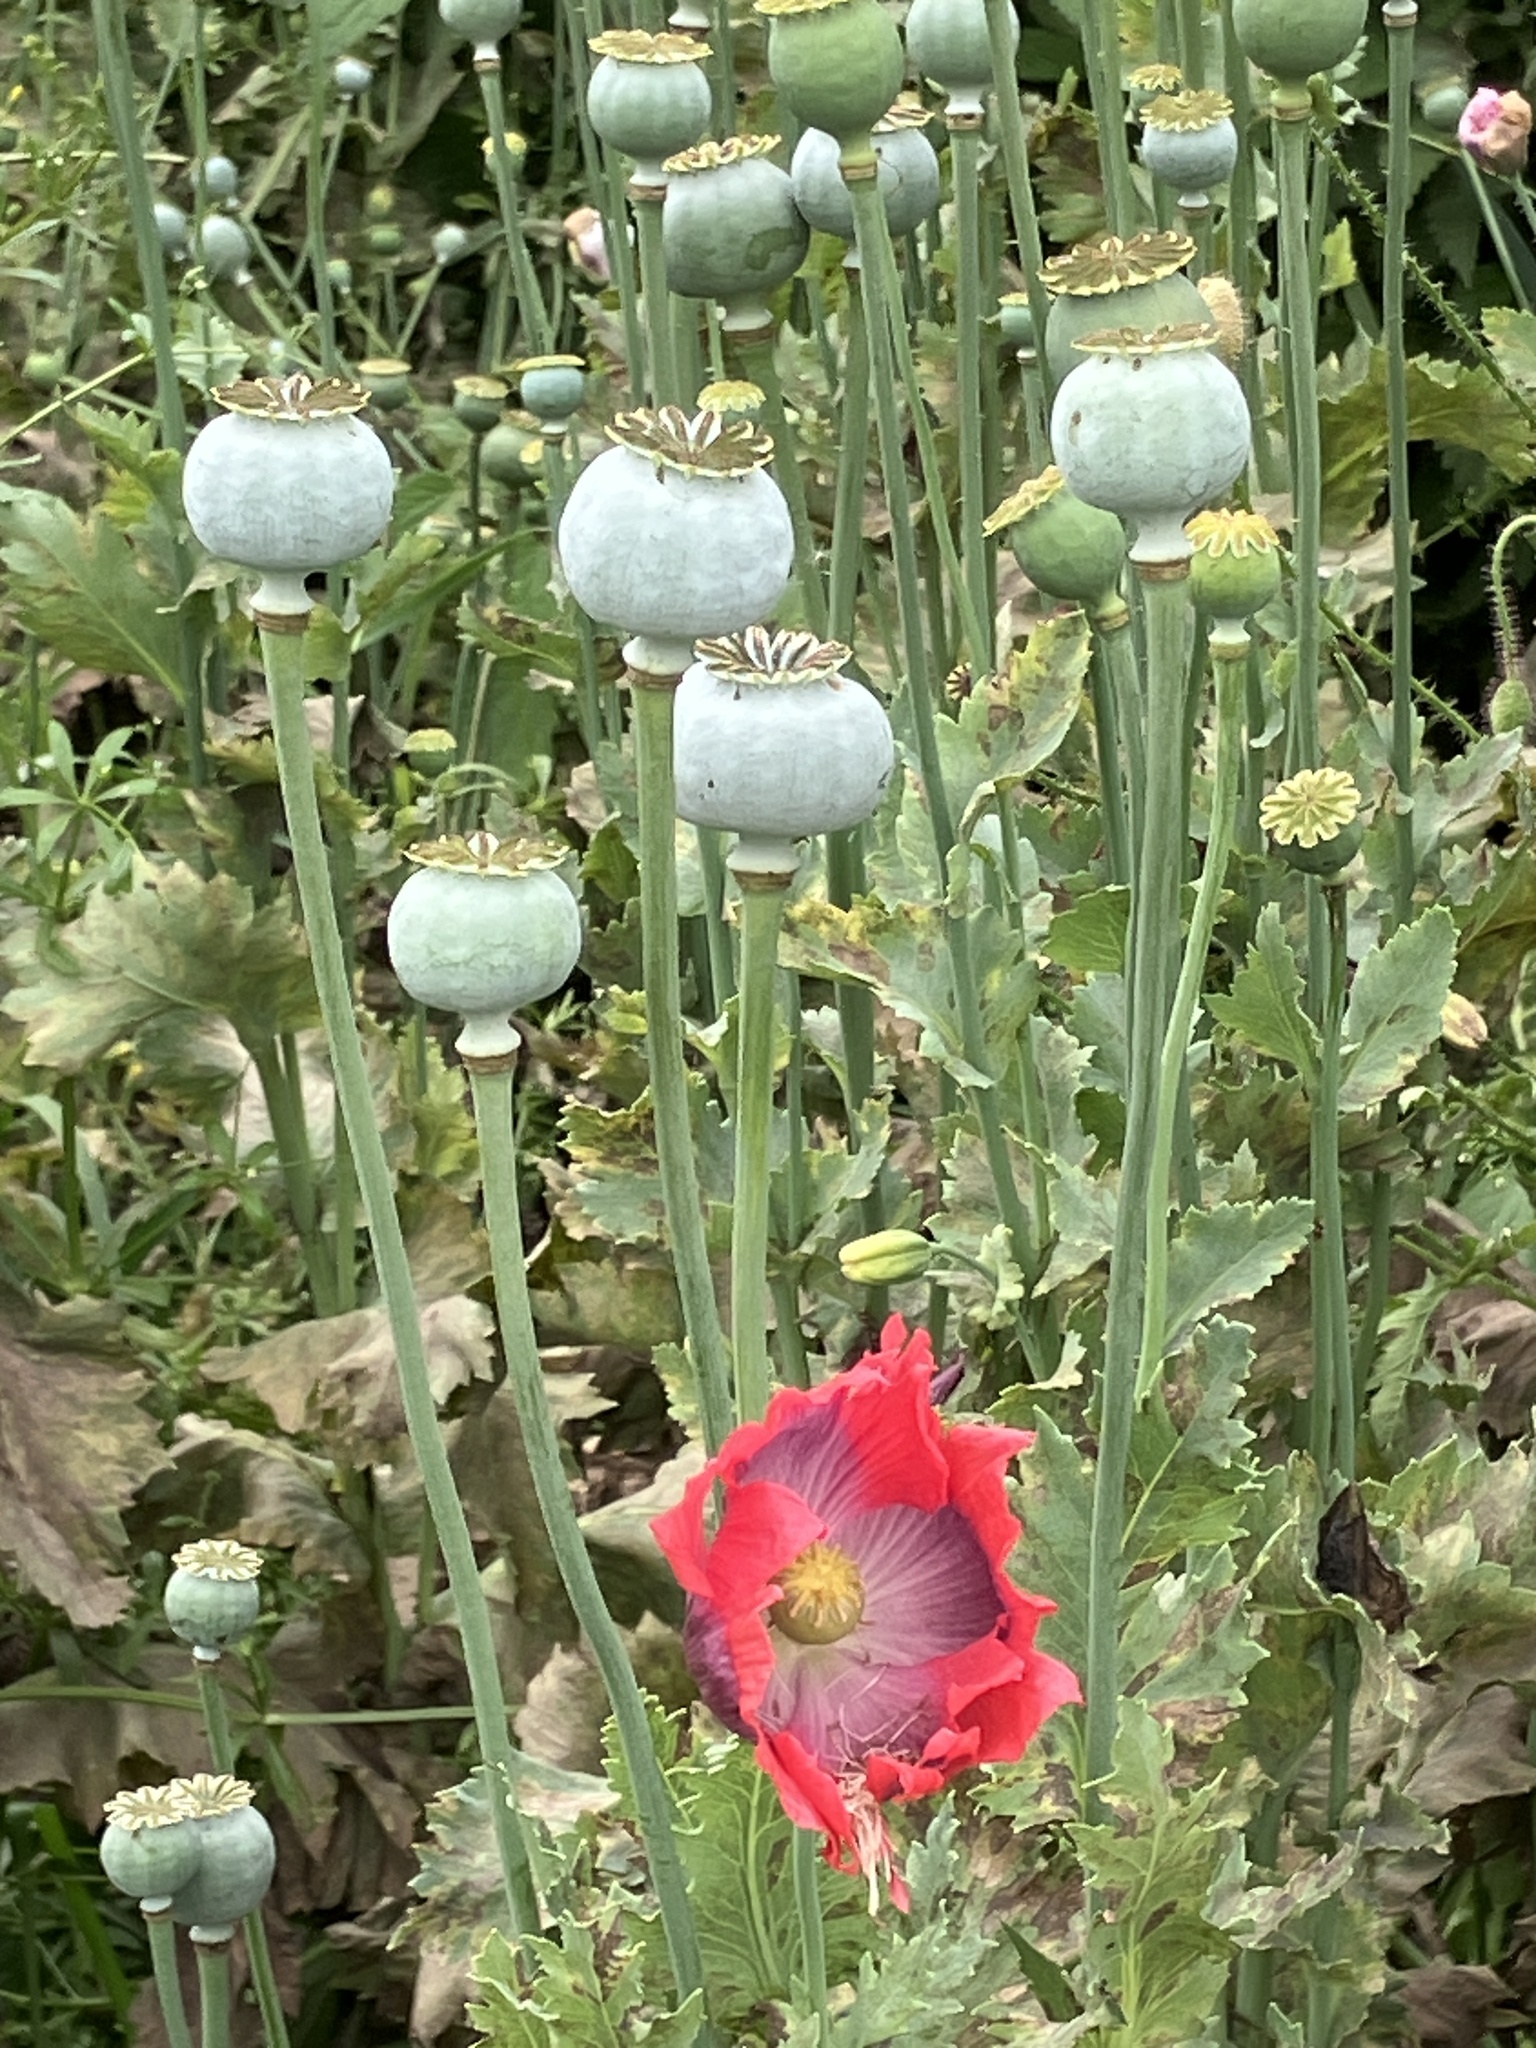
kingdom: Plantae
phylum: Tracheophyta
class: Magnoliopsida
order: Ranunculales
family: Papaveraceae
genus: Papaver
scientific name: Papaver somniferum
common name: Opium poppy
